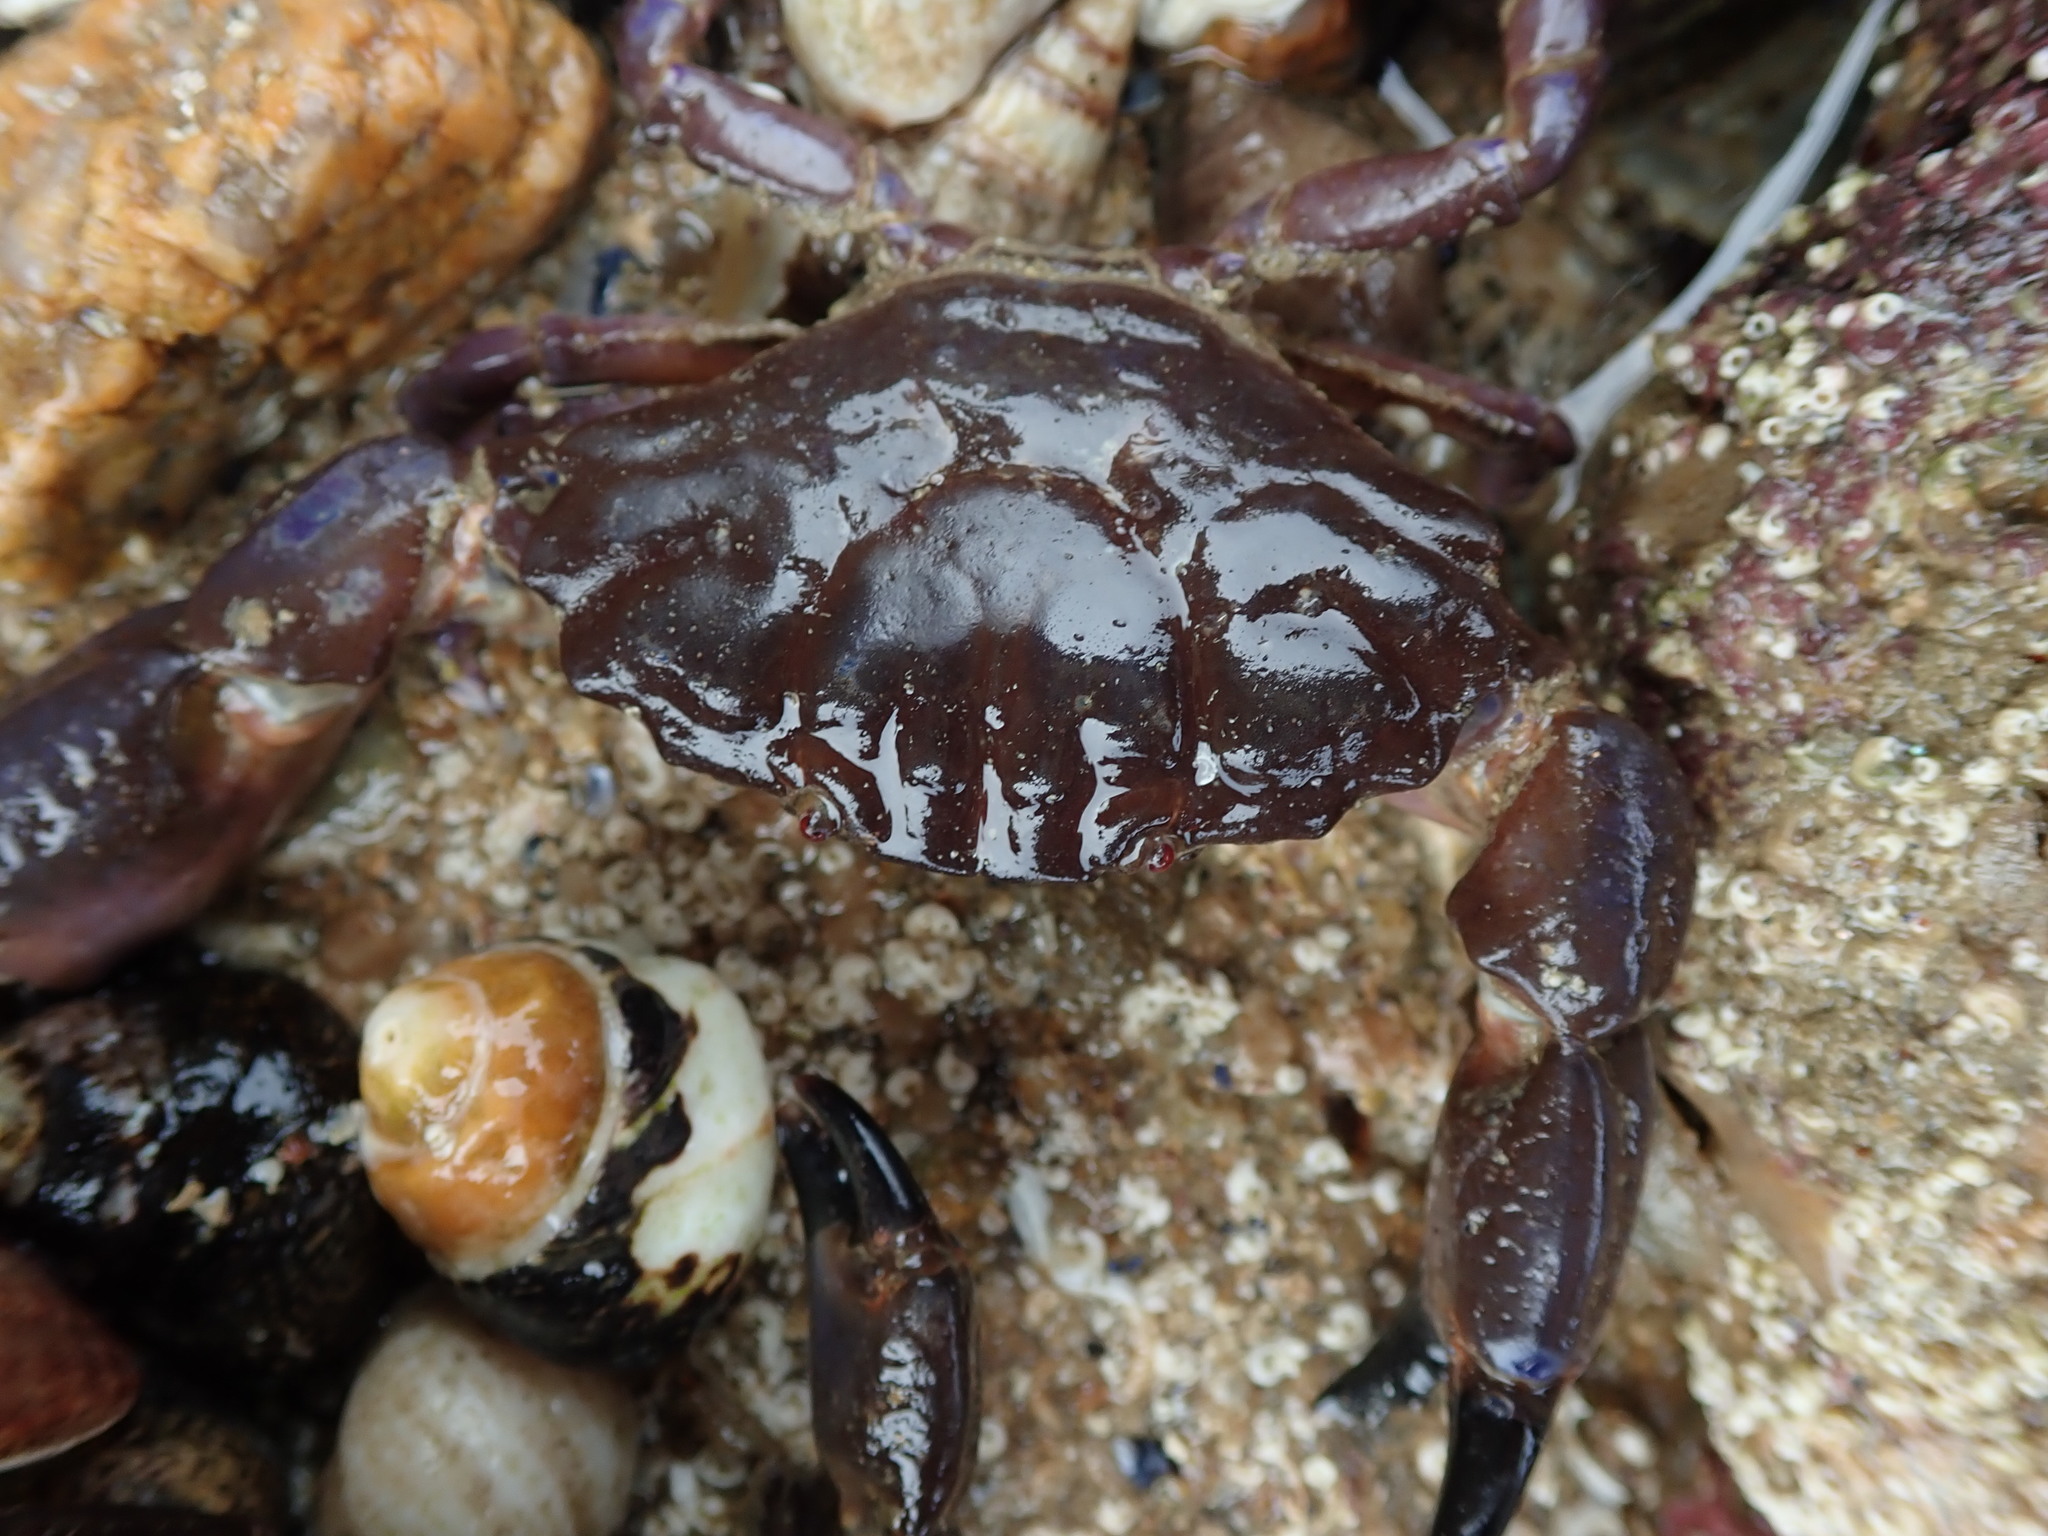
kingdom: Animalia
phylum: Arthropoda
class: Malacostraca
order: Decapoda
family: Xanthidae
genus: Xantho
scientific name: Xantho hydrophilus
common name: Montagu's crab
